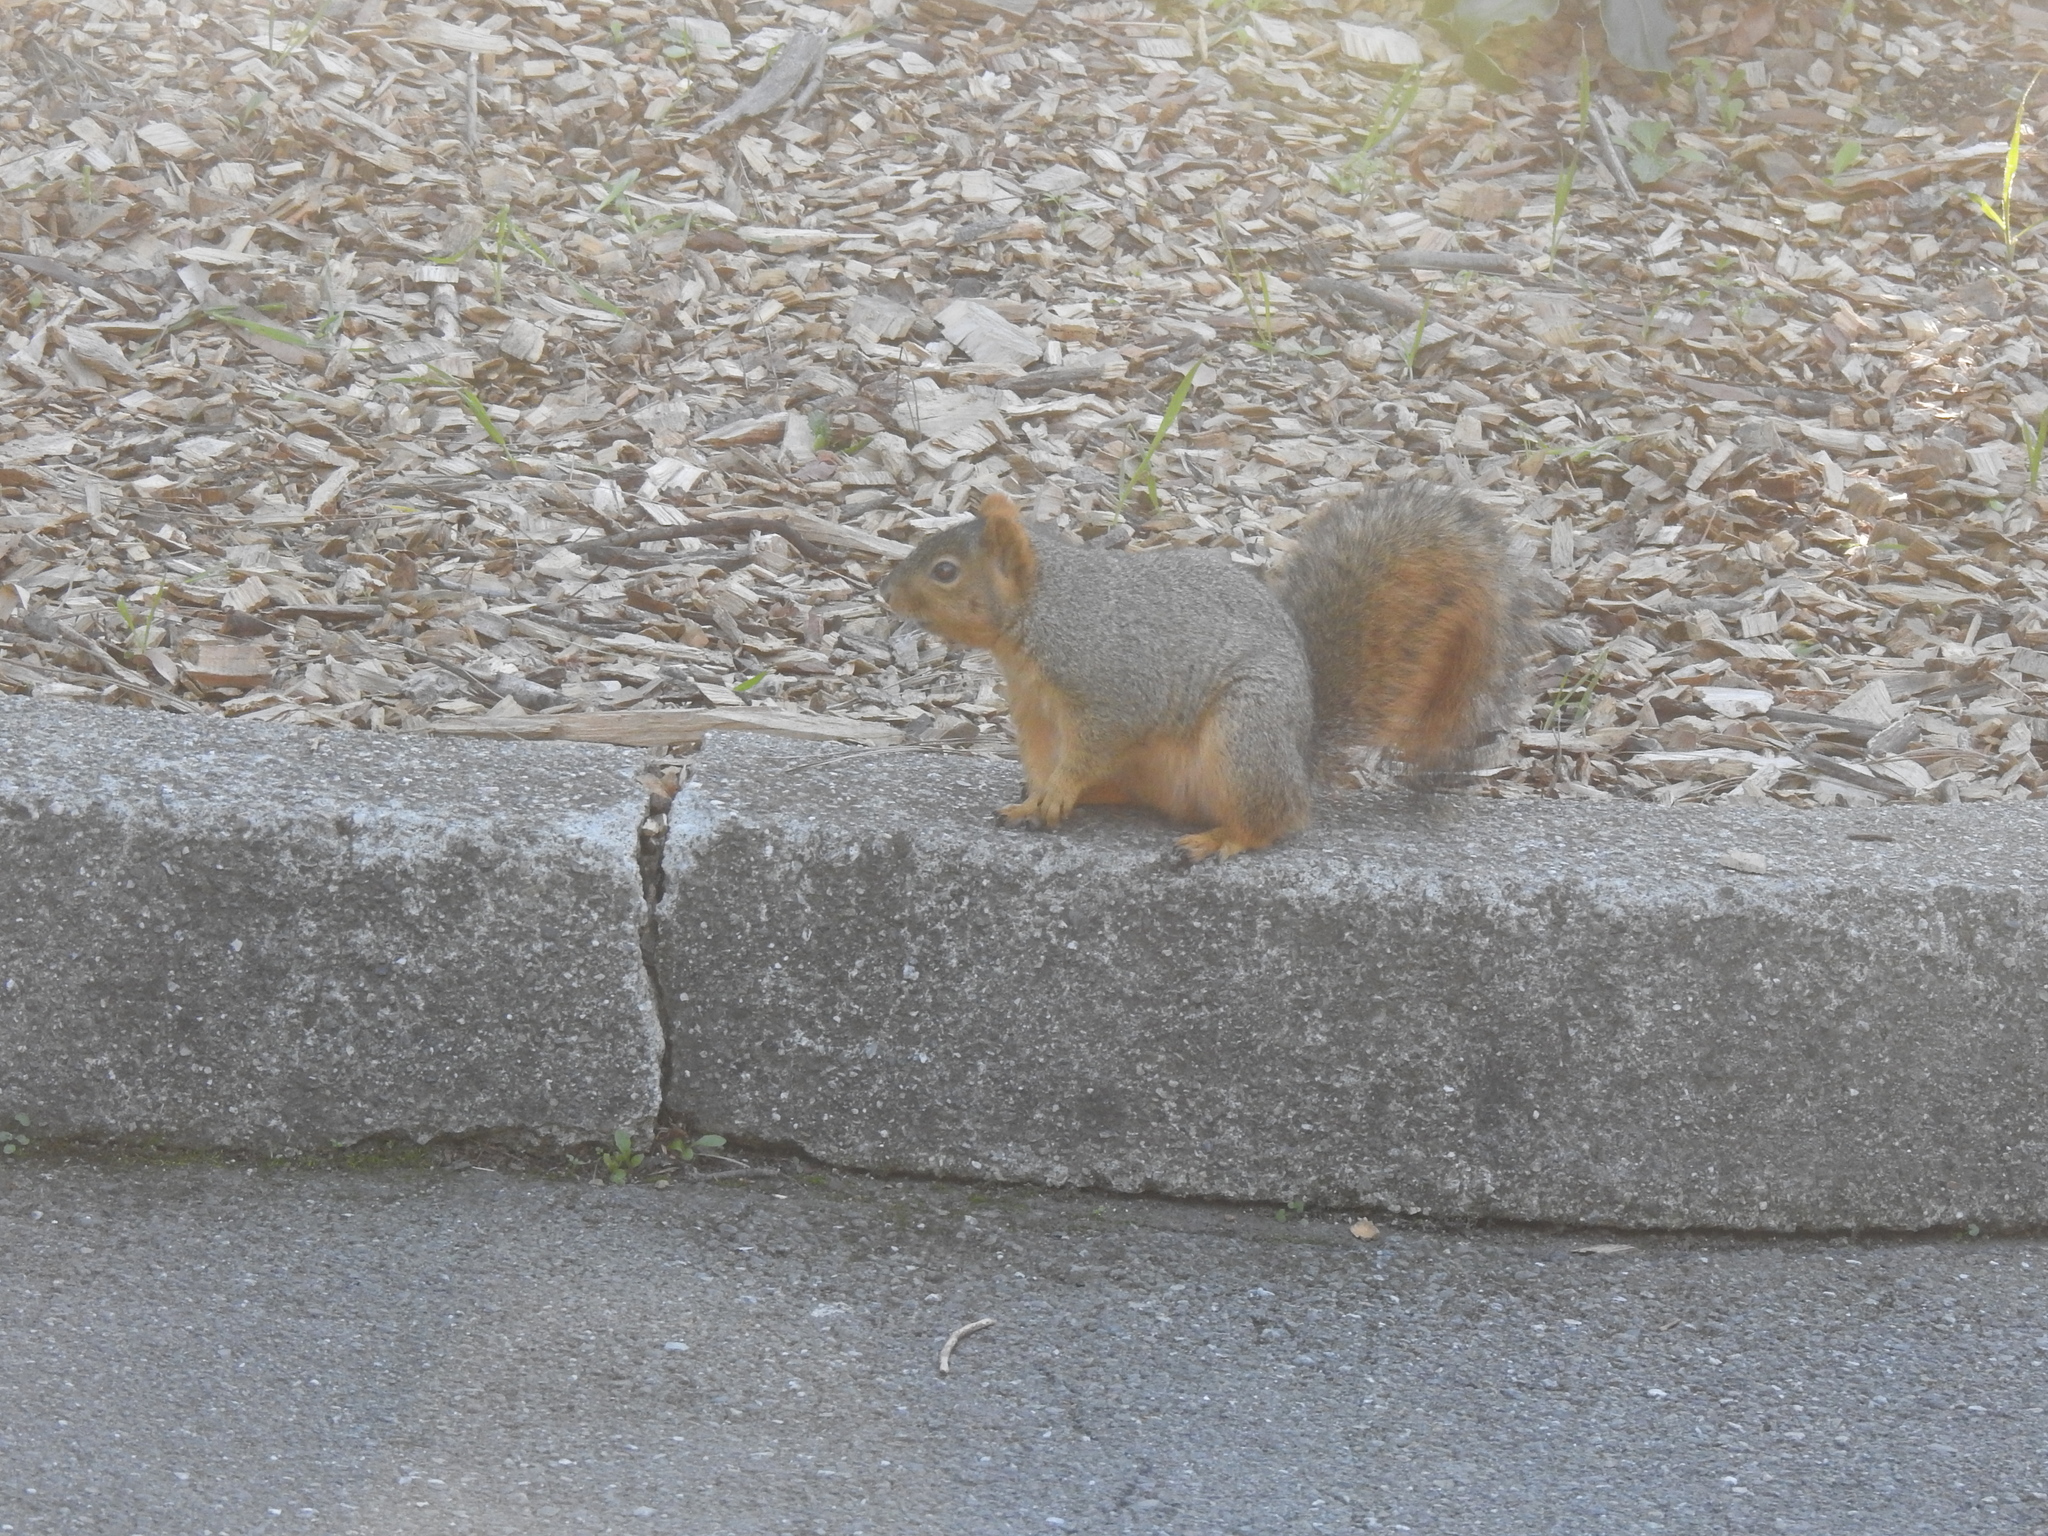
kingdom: Animalia
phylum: Chordata
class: Mammalia
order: Rodentia
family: Sciuridae
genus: Sciurus
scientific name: Sciurus niger
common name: Fox squirrel
